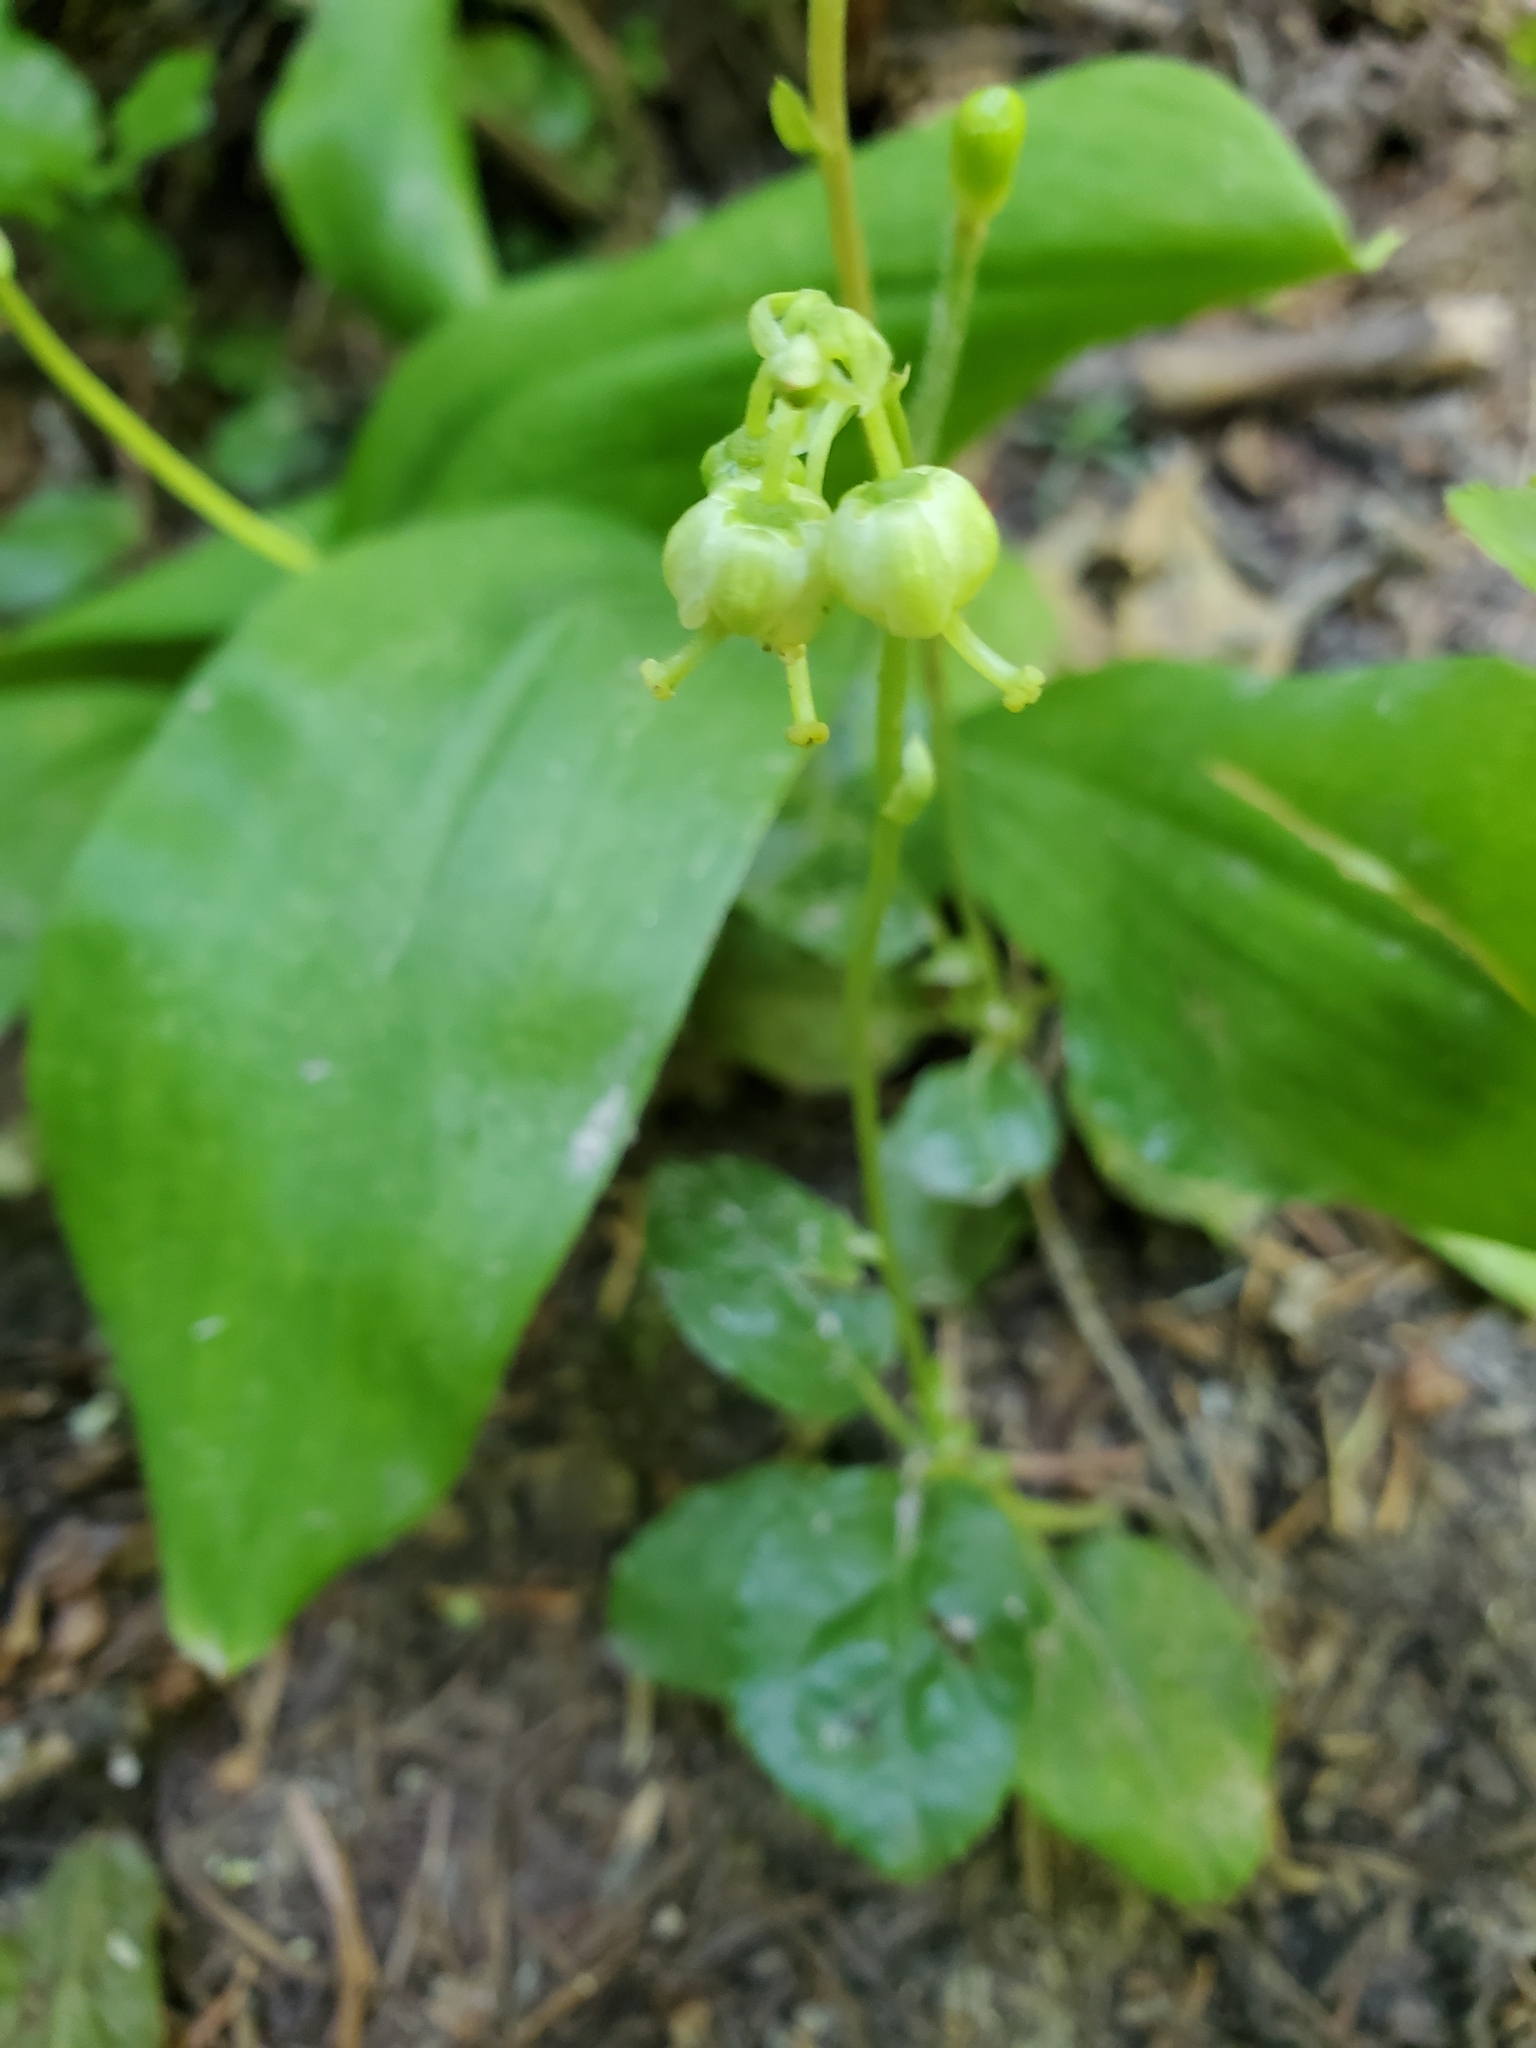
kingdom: Plantae
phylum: Tracheophyta
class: Magnoliopsida
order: Ericales
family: Ericaceae
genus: Orthilia
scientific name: Orthilia secunda
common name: One-sided orthilia
